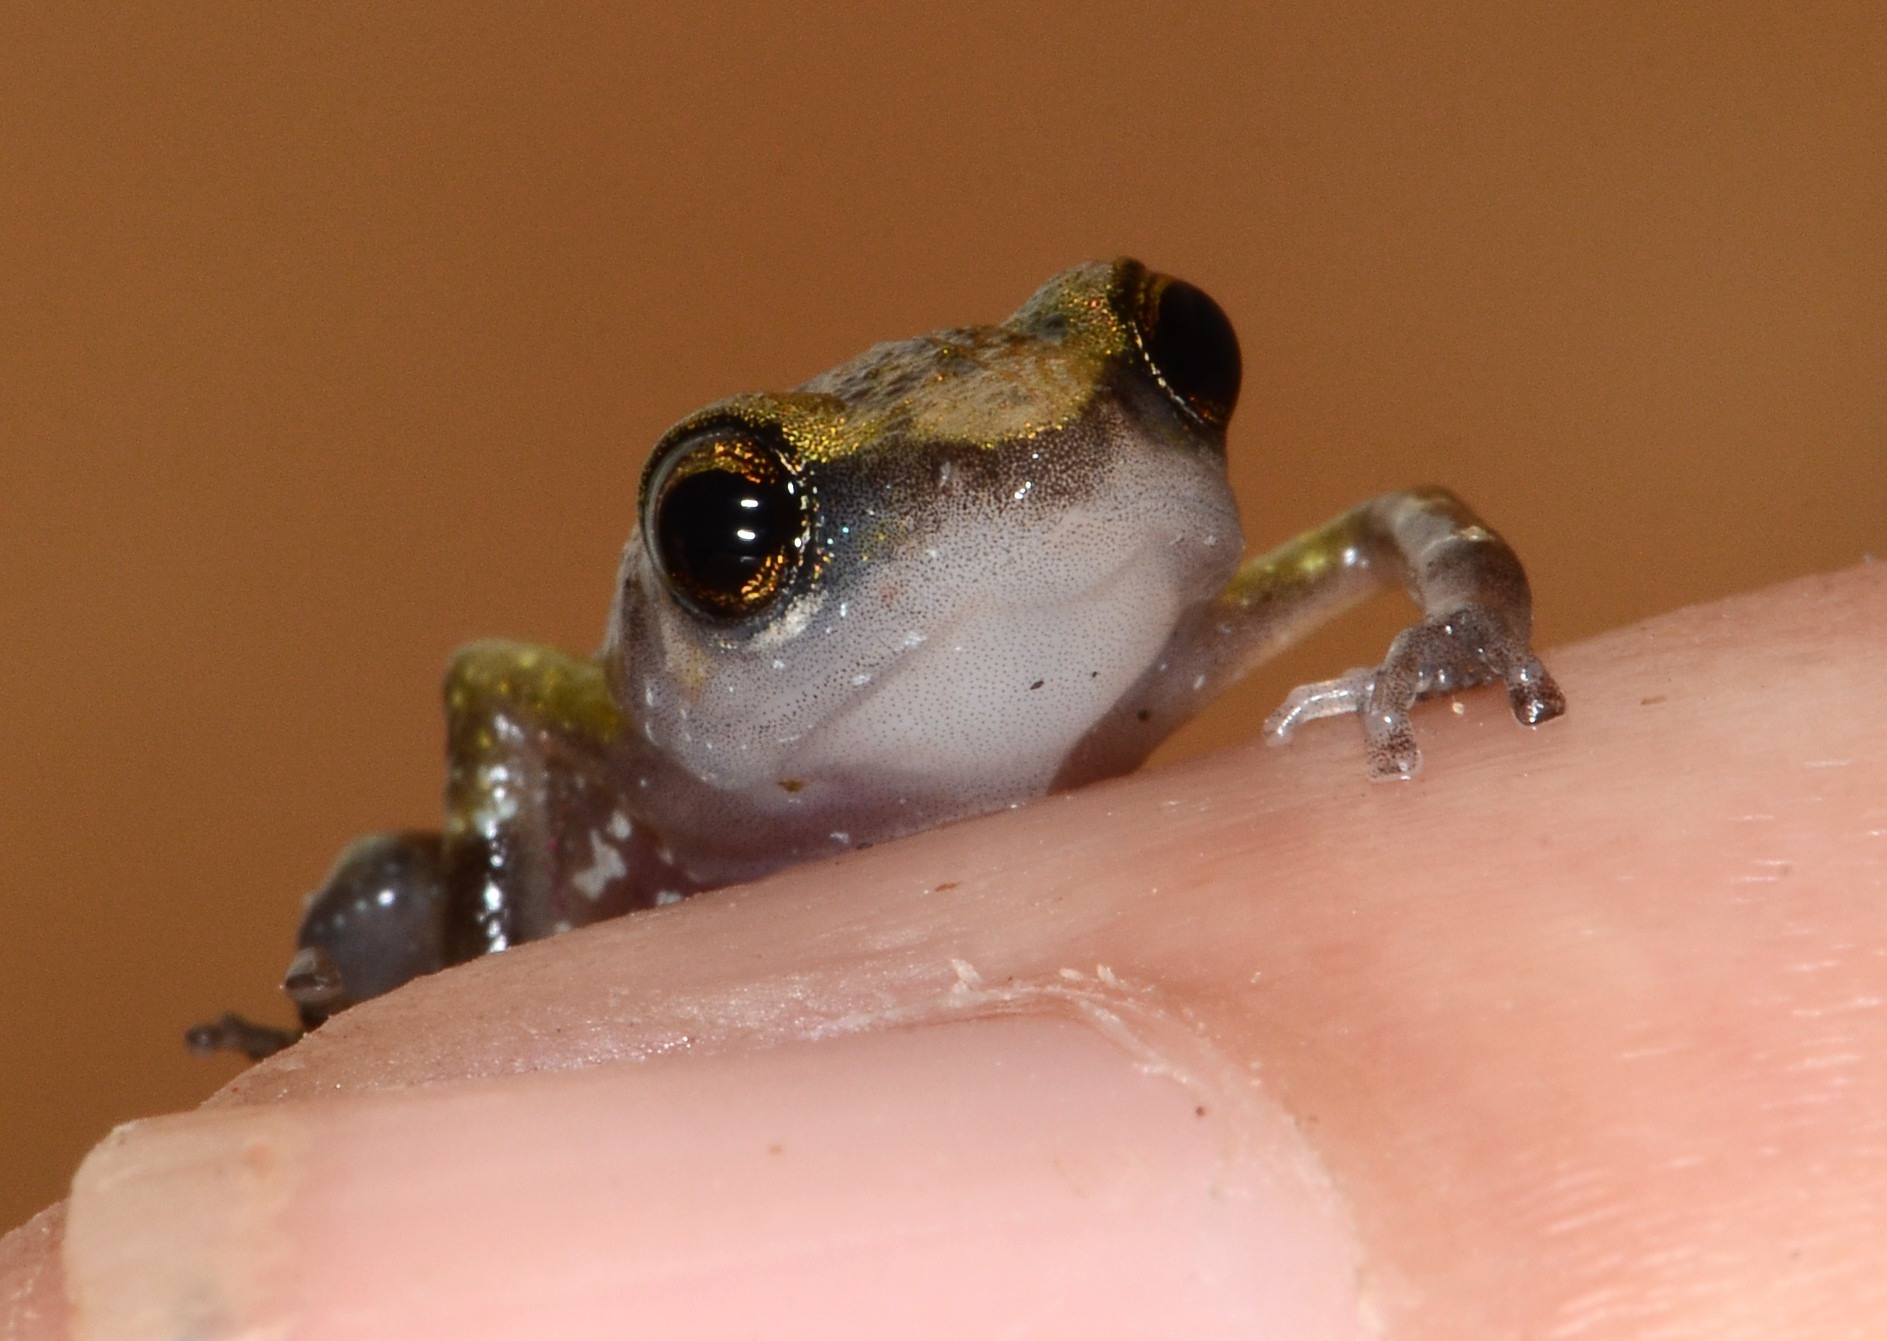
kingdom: Animalia
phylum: Chordata
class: Amphibia
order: Anura
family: Eleutherodactylidae
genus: Eleutherodactylus
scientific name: Eleutherodactylus pallidus
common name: Pale peeping frog
